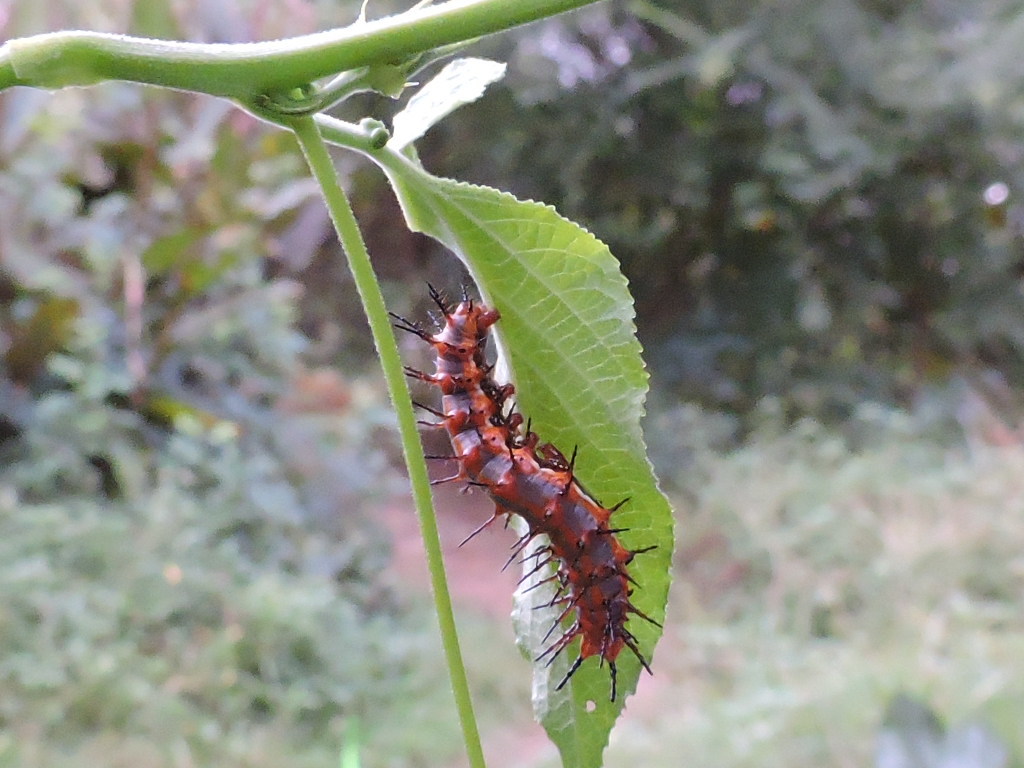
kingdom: Animalia
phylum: Arthropoda
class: Insecta
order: Lepidoptera
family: Nymphalidae
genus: Dione
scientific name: Dione vanillae
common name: Gulf fritillary
